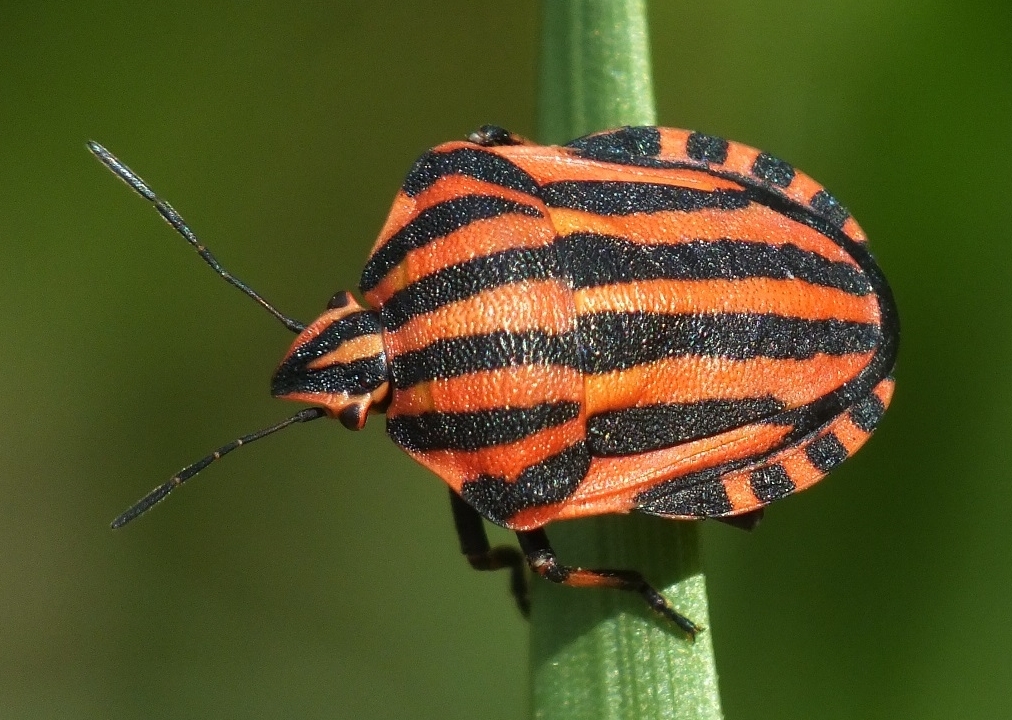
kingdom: Animalia
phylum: Arthropoda
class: Insecta
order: Hemiptera
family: Pentatomidae
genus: Graphosoma
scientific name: Graphosoma italicum
